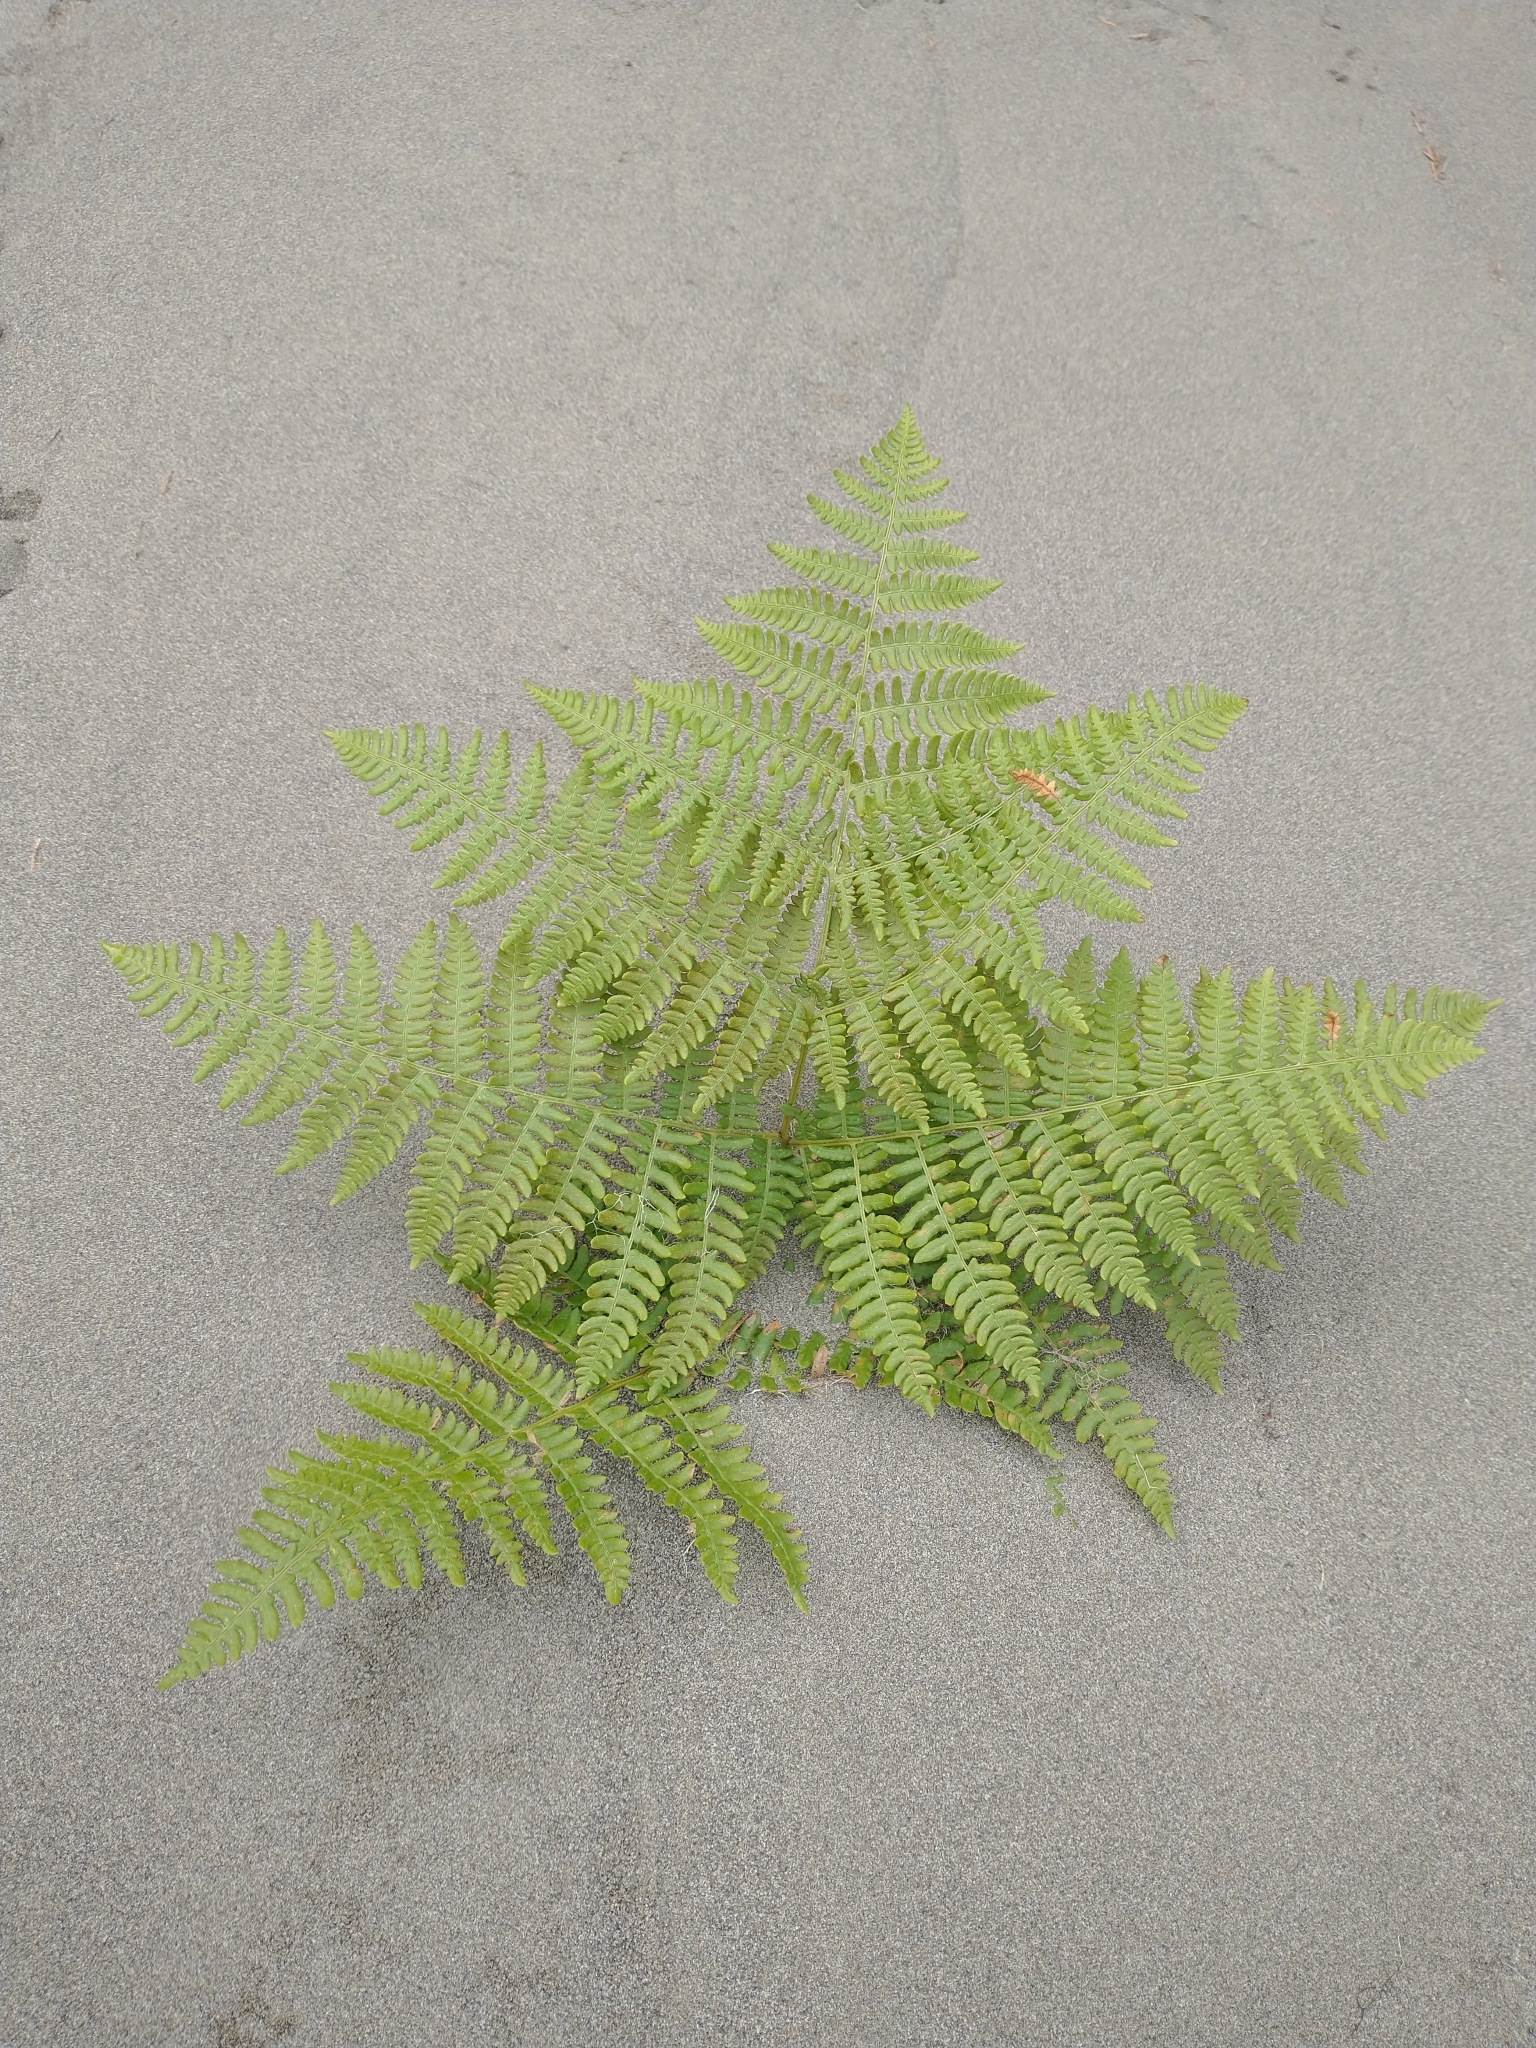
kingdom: Plantae
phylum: Tracheophyta
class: Polypodiopsida
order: Polypodiales
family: Dennstaedtiaceae
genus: Pteridium
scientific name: Pteridium aquilinum
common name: Bracken
